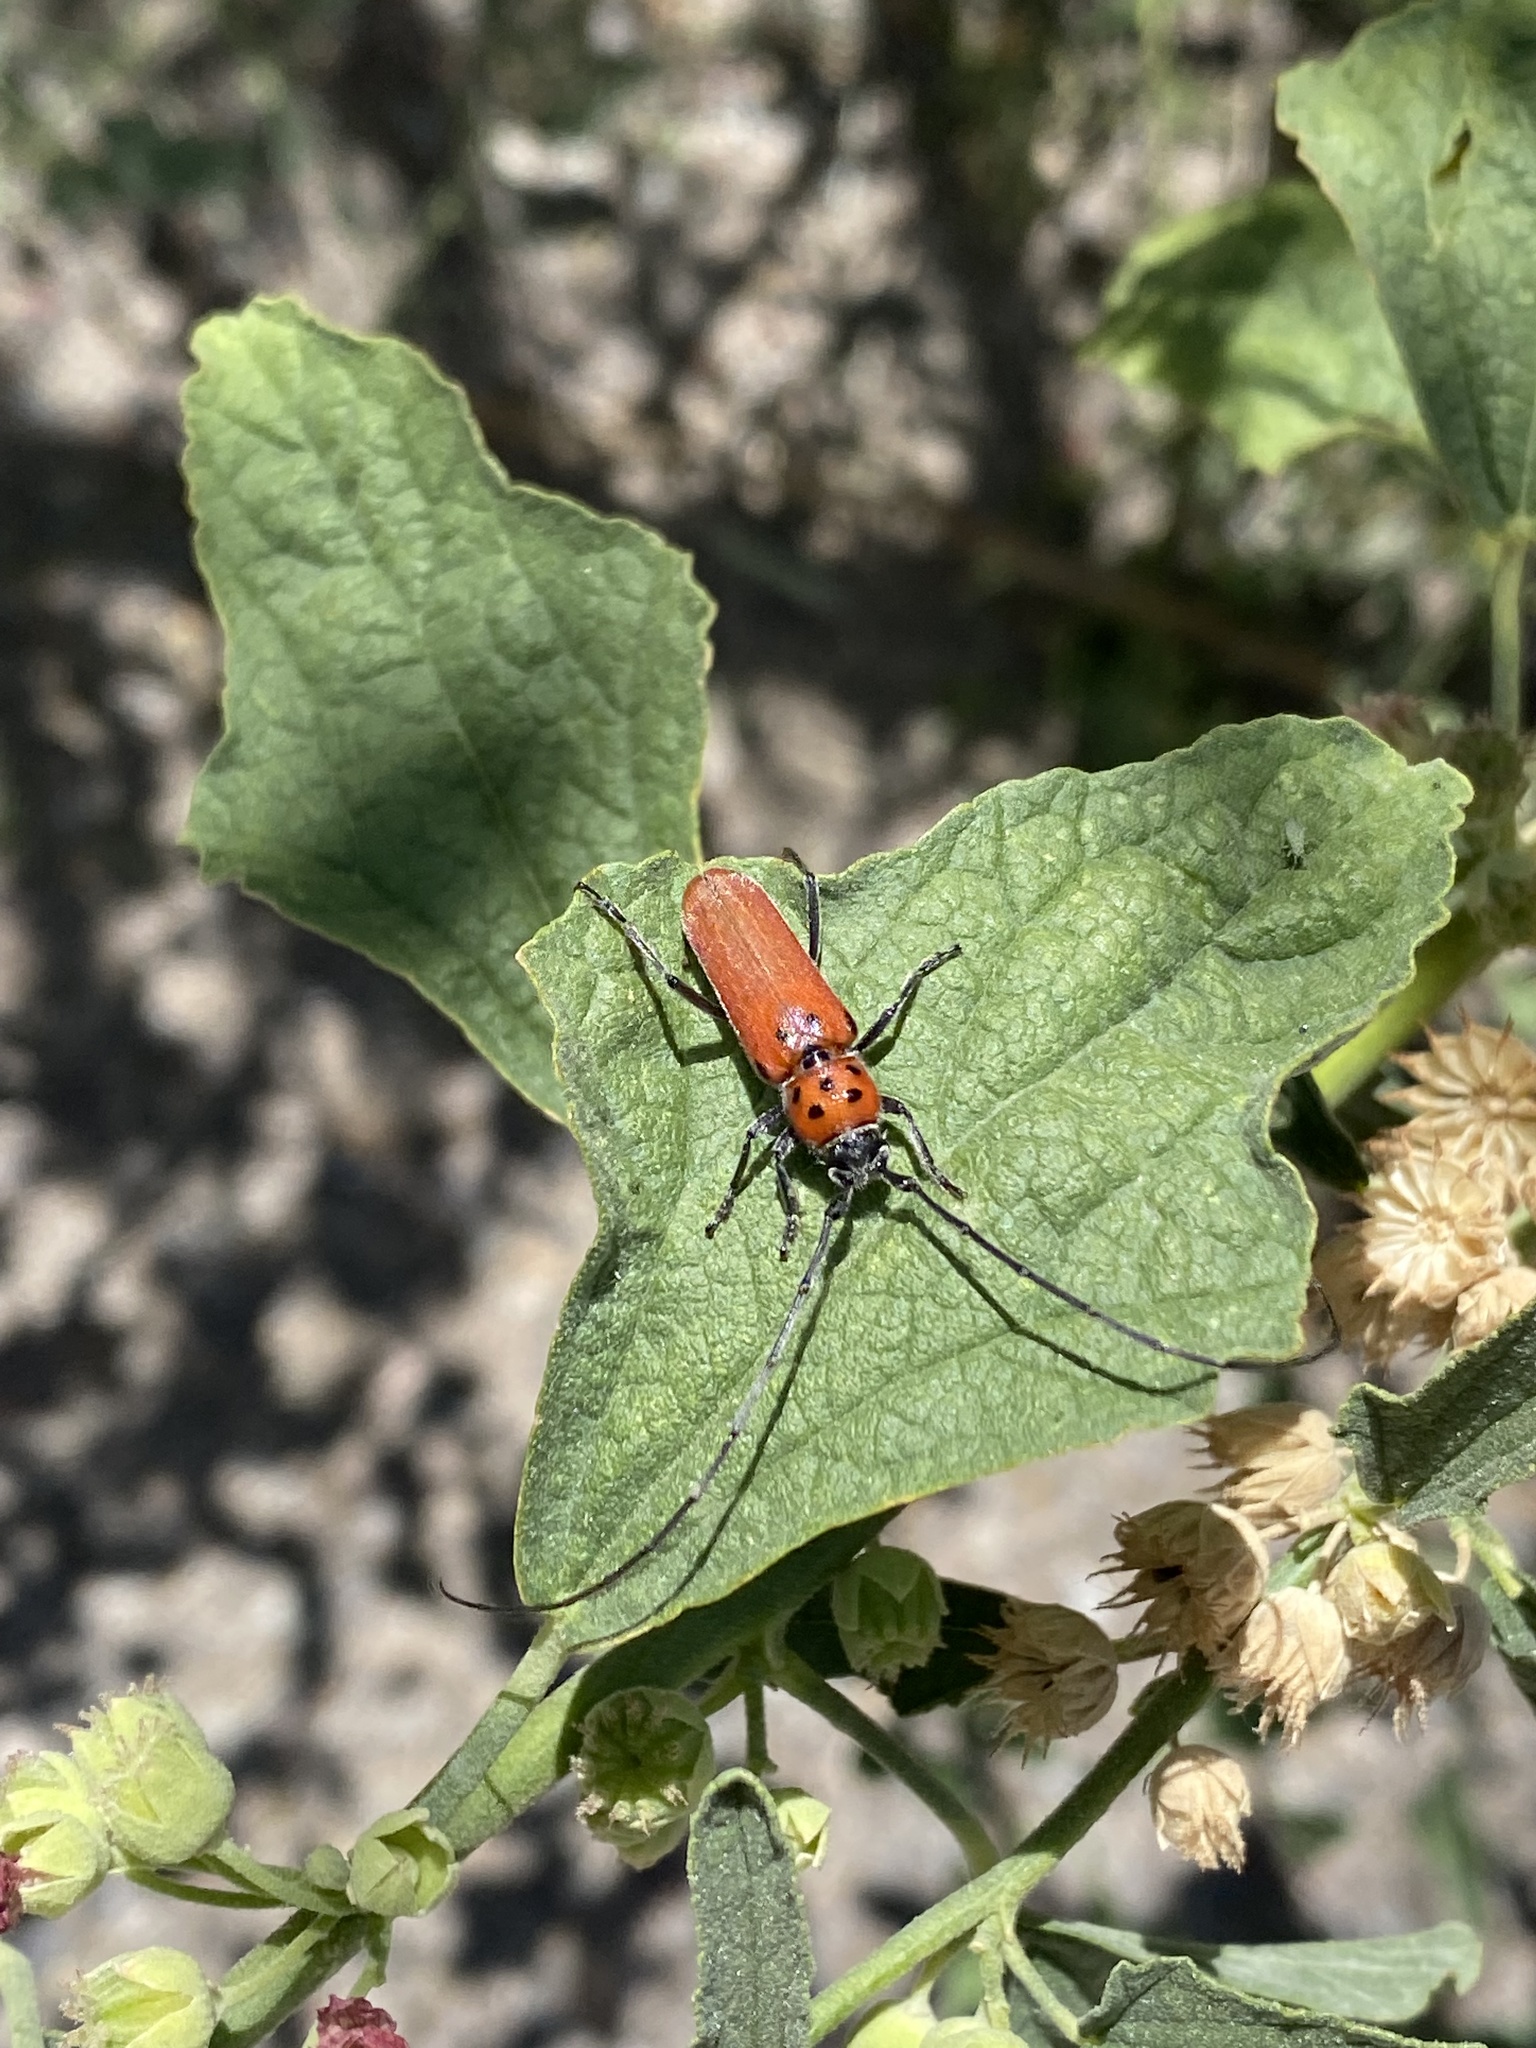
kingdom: Animalia
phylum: Arthropoda
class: Insecta
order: Coleoptera
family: Cerambycidae
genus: Tylosis
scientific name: Tylosis maculatus
